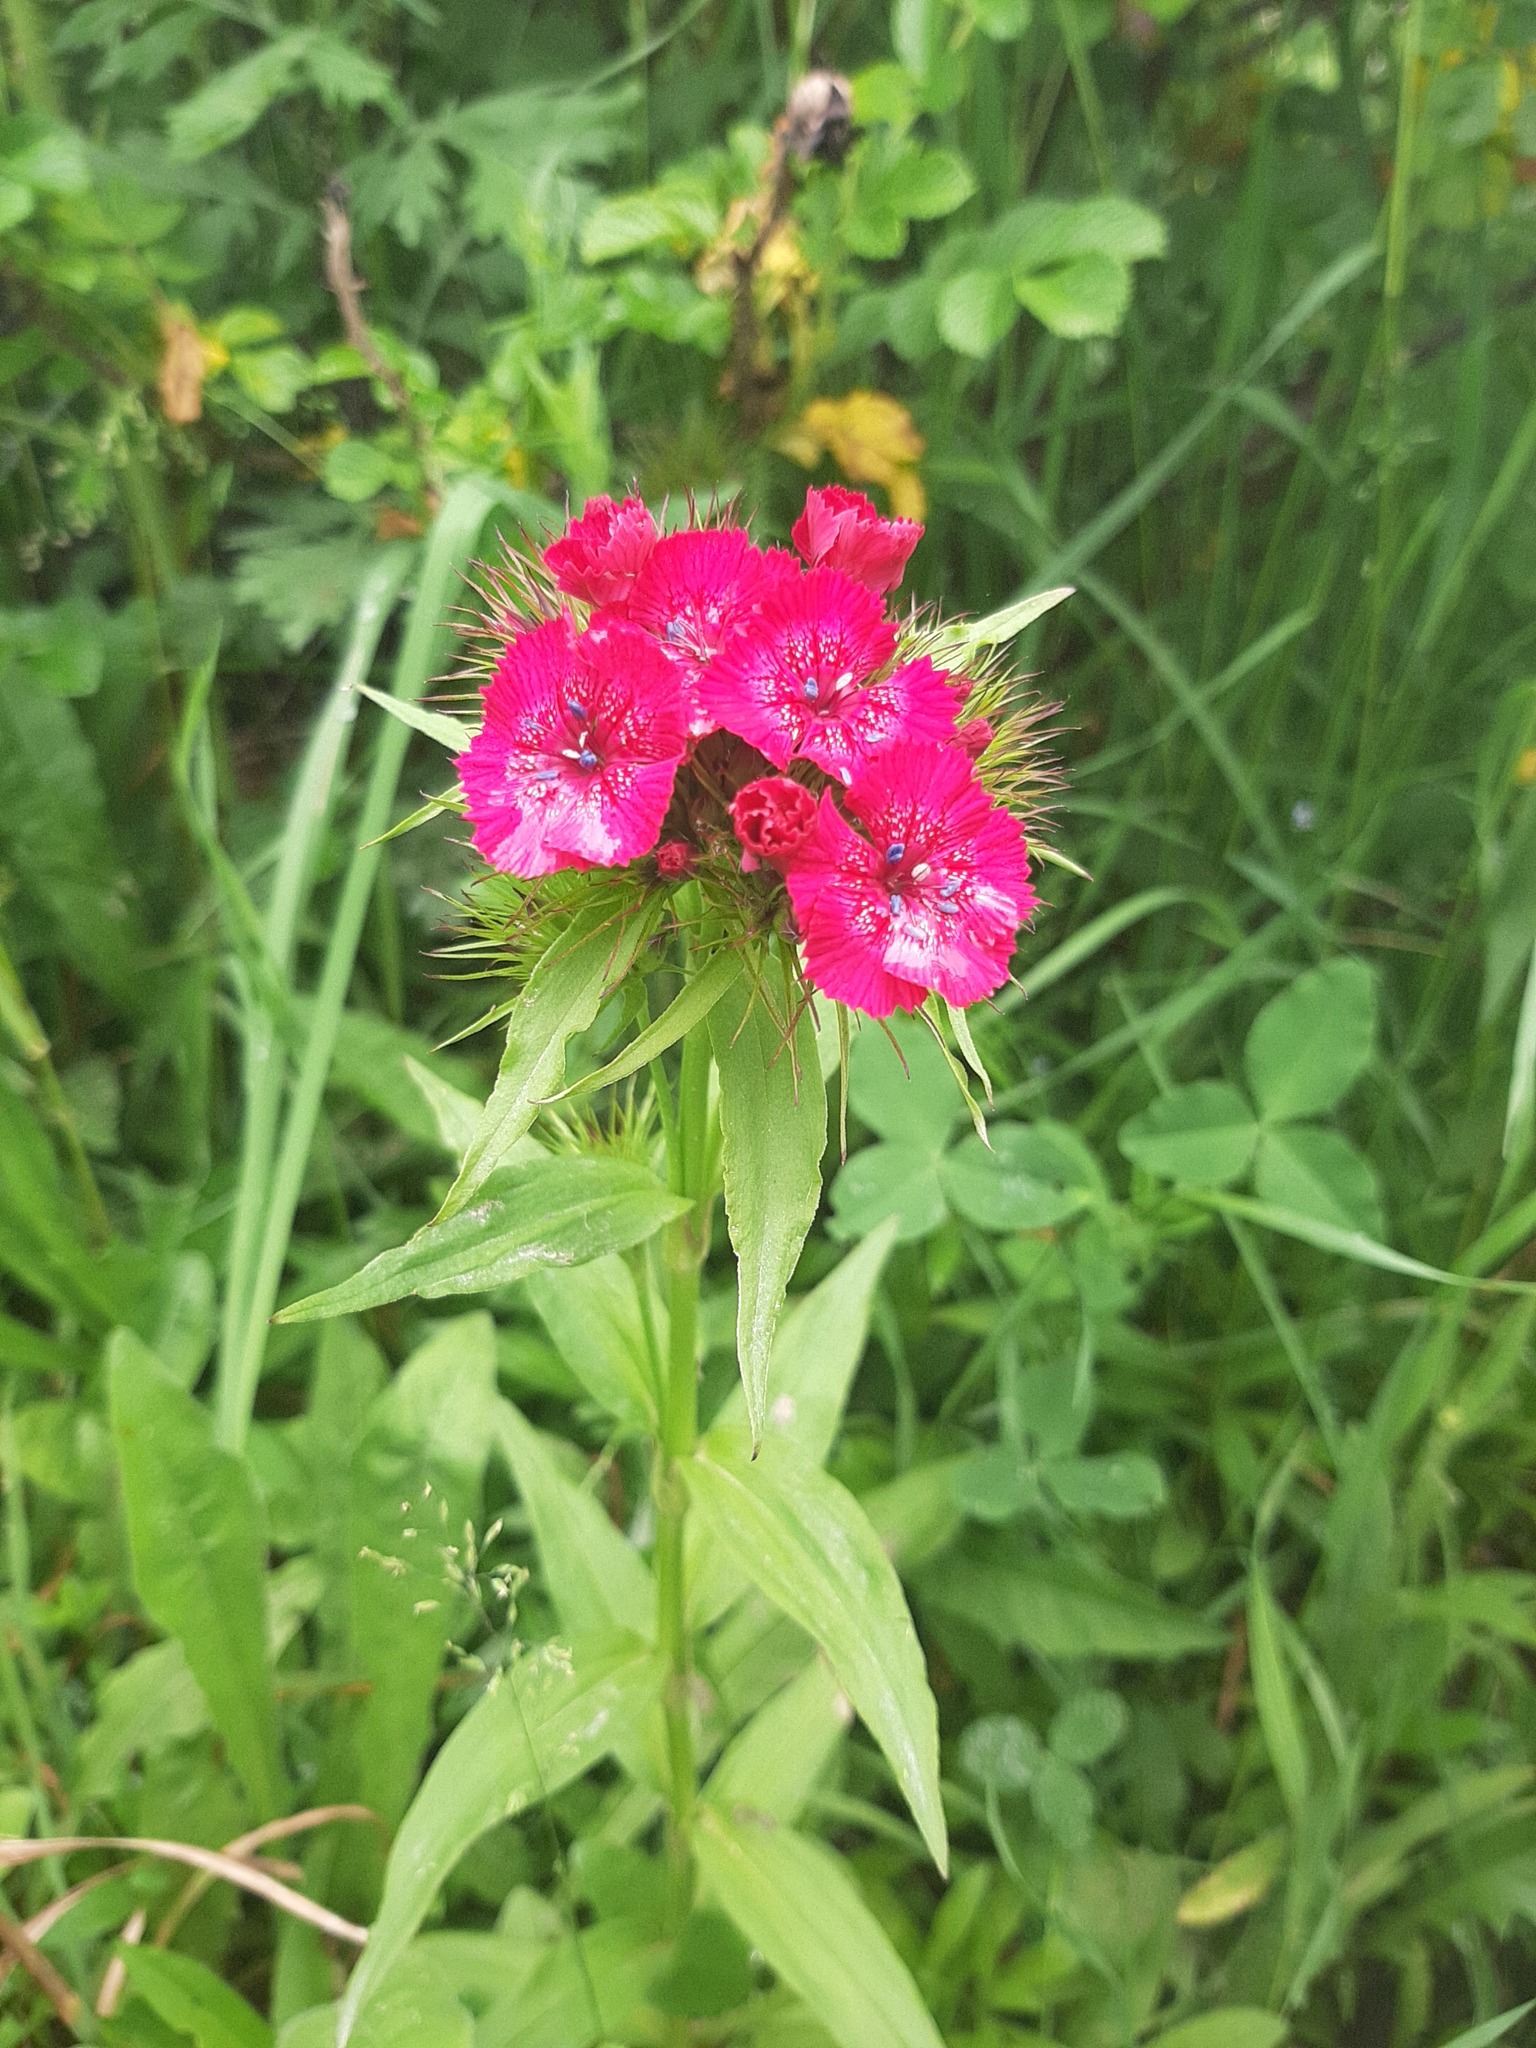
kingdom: Plantae
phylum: Tracheophyta
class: Magnoliopsida
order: Caryophyllales
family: Caryophyllaceae
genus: Dianthus
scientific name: Dianthus barbatus
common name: Sweet-william
